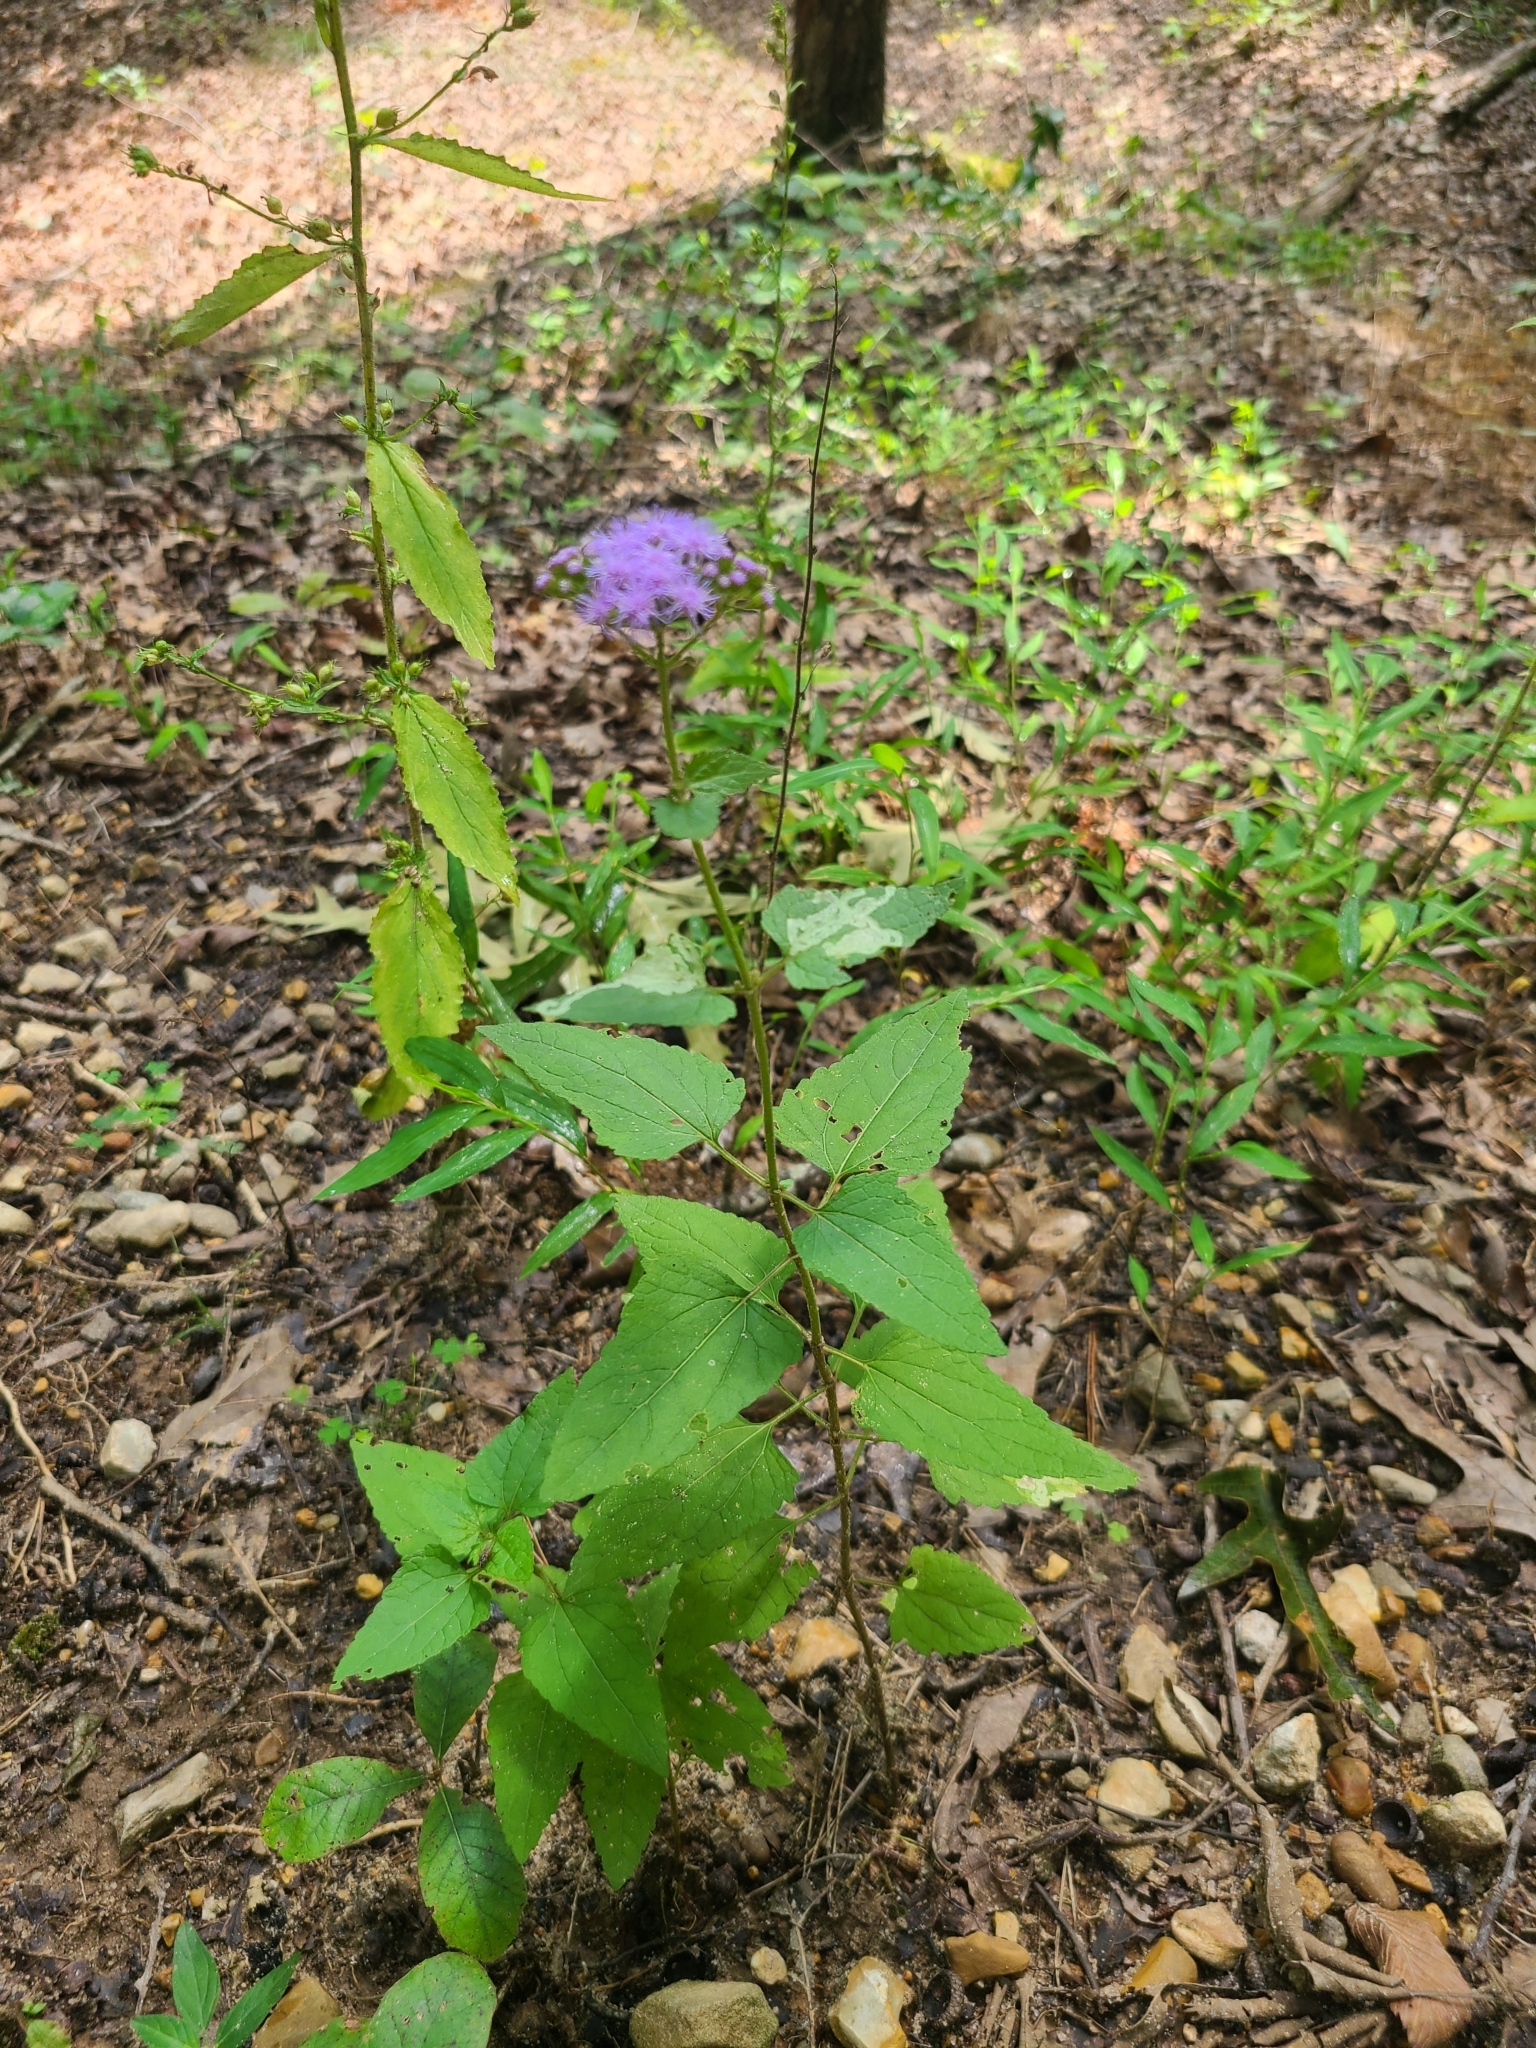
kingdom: Plantae
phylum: Tracheophyta
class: Magnoliopsida
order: Asterales
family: Asteraceae
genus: Conoclinium
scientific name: Conoclinium coelestinum
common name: Blue mistflower
